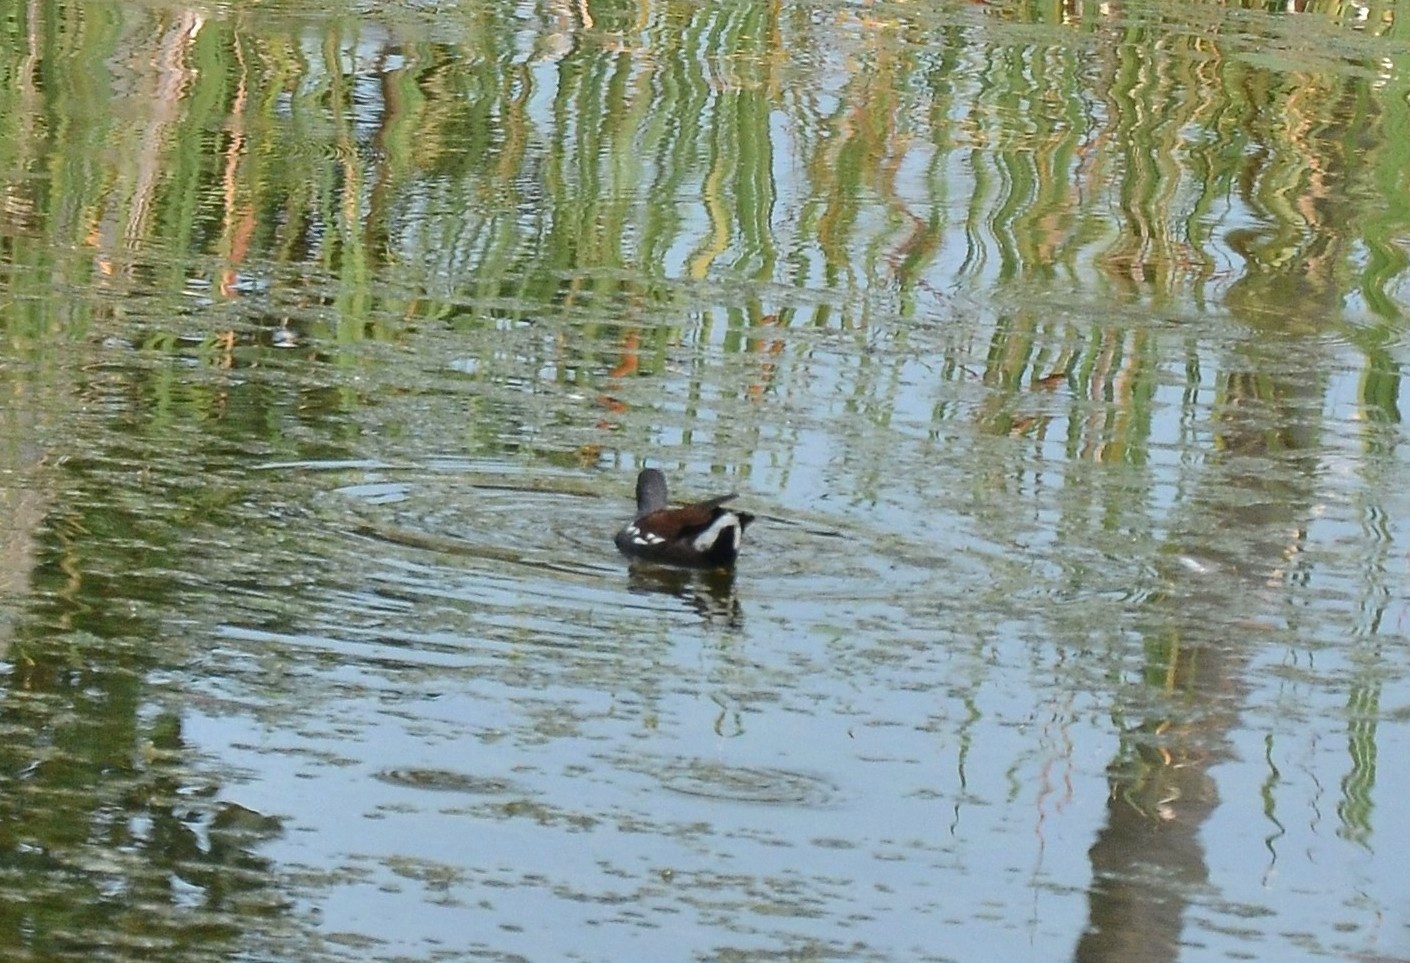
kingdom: Animalia
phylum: Chordata
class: Aves
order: Gruiformes
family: Rallidae
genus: Gallinula
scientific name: Gallinula chloropus
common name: Common moorhen
